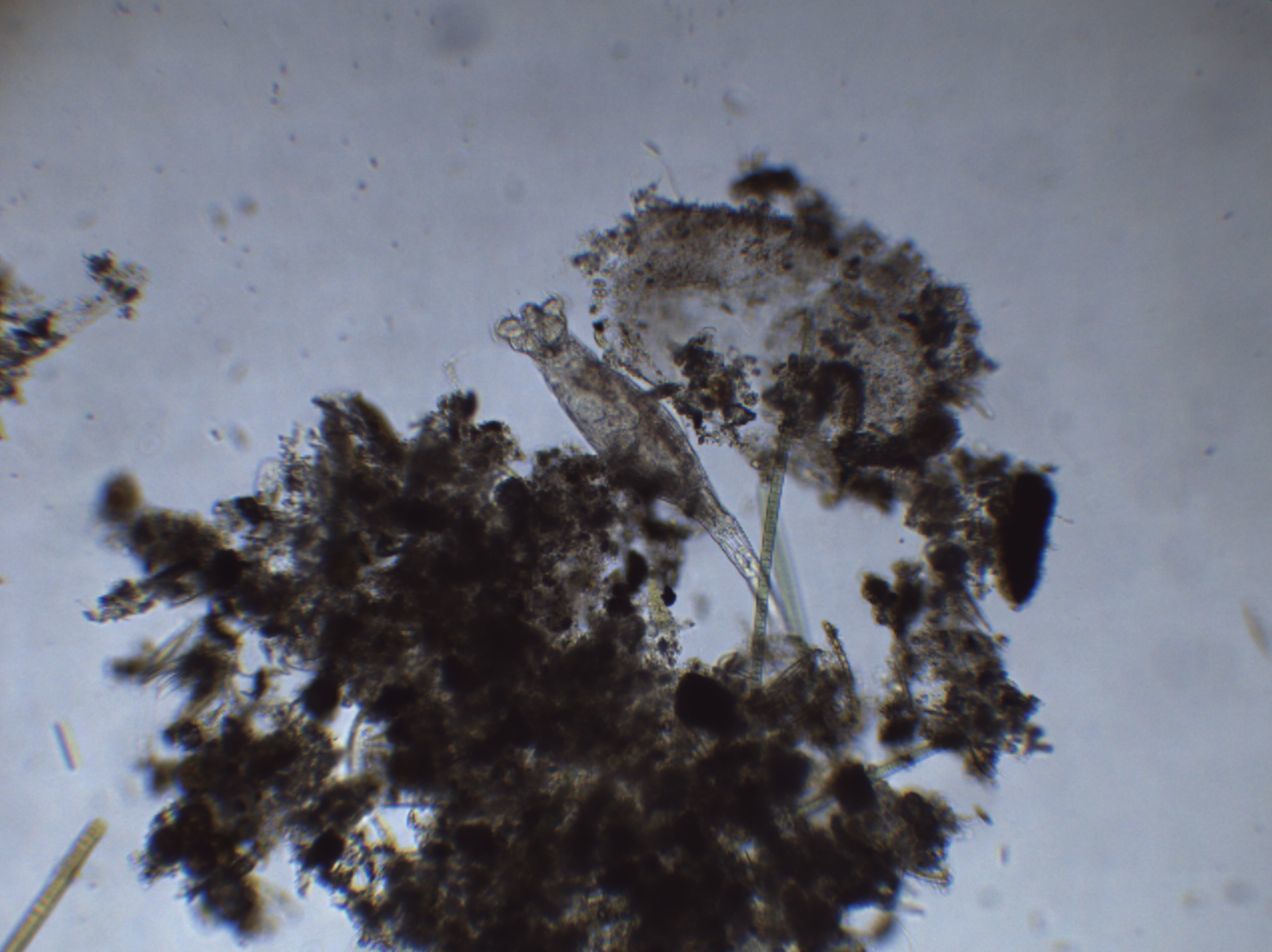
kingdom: Animalia
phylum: Rotifera
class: Eurotatoria
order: Bdelloidea
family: Philodinidae
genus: Rotaria
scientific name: Rotaria macrura
